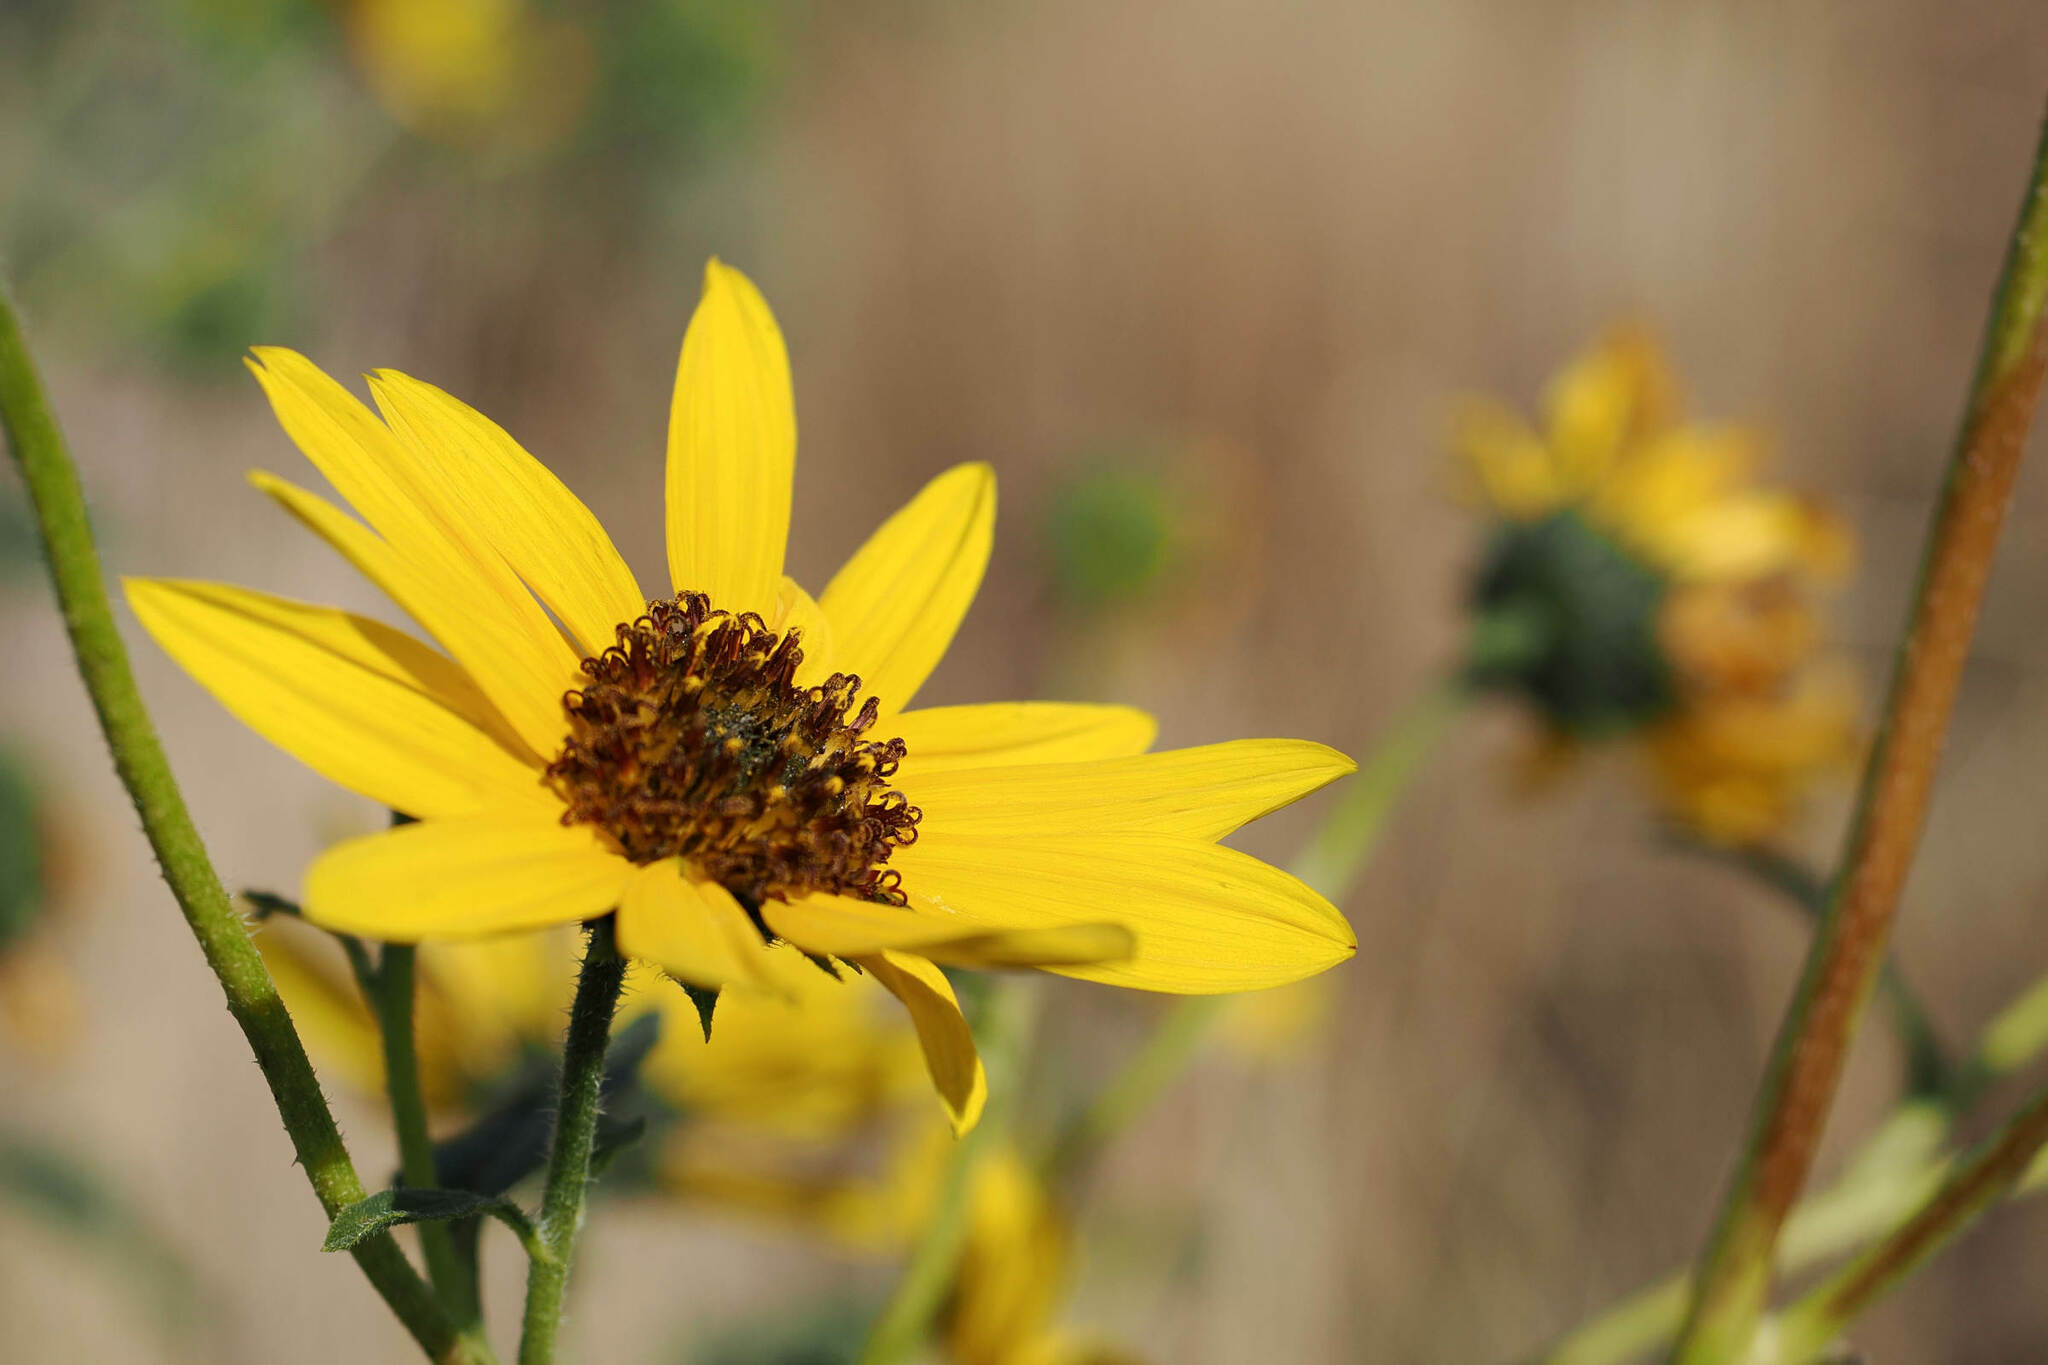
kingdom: Plantae
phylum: Tracheophyta
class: Magnoliopsida
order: Asterales
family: Asteraceae
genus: Helianthus
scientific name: Helianthus petiolaris
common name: Lesser sunflower
